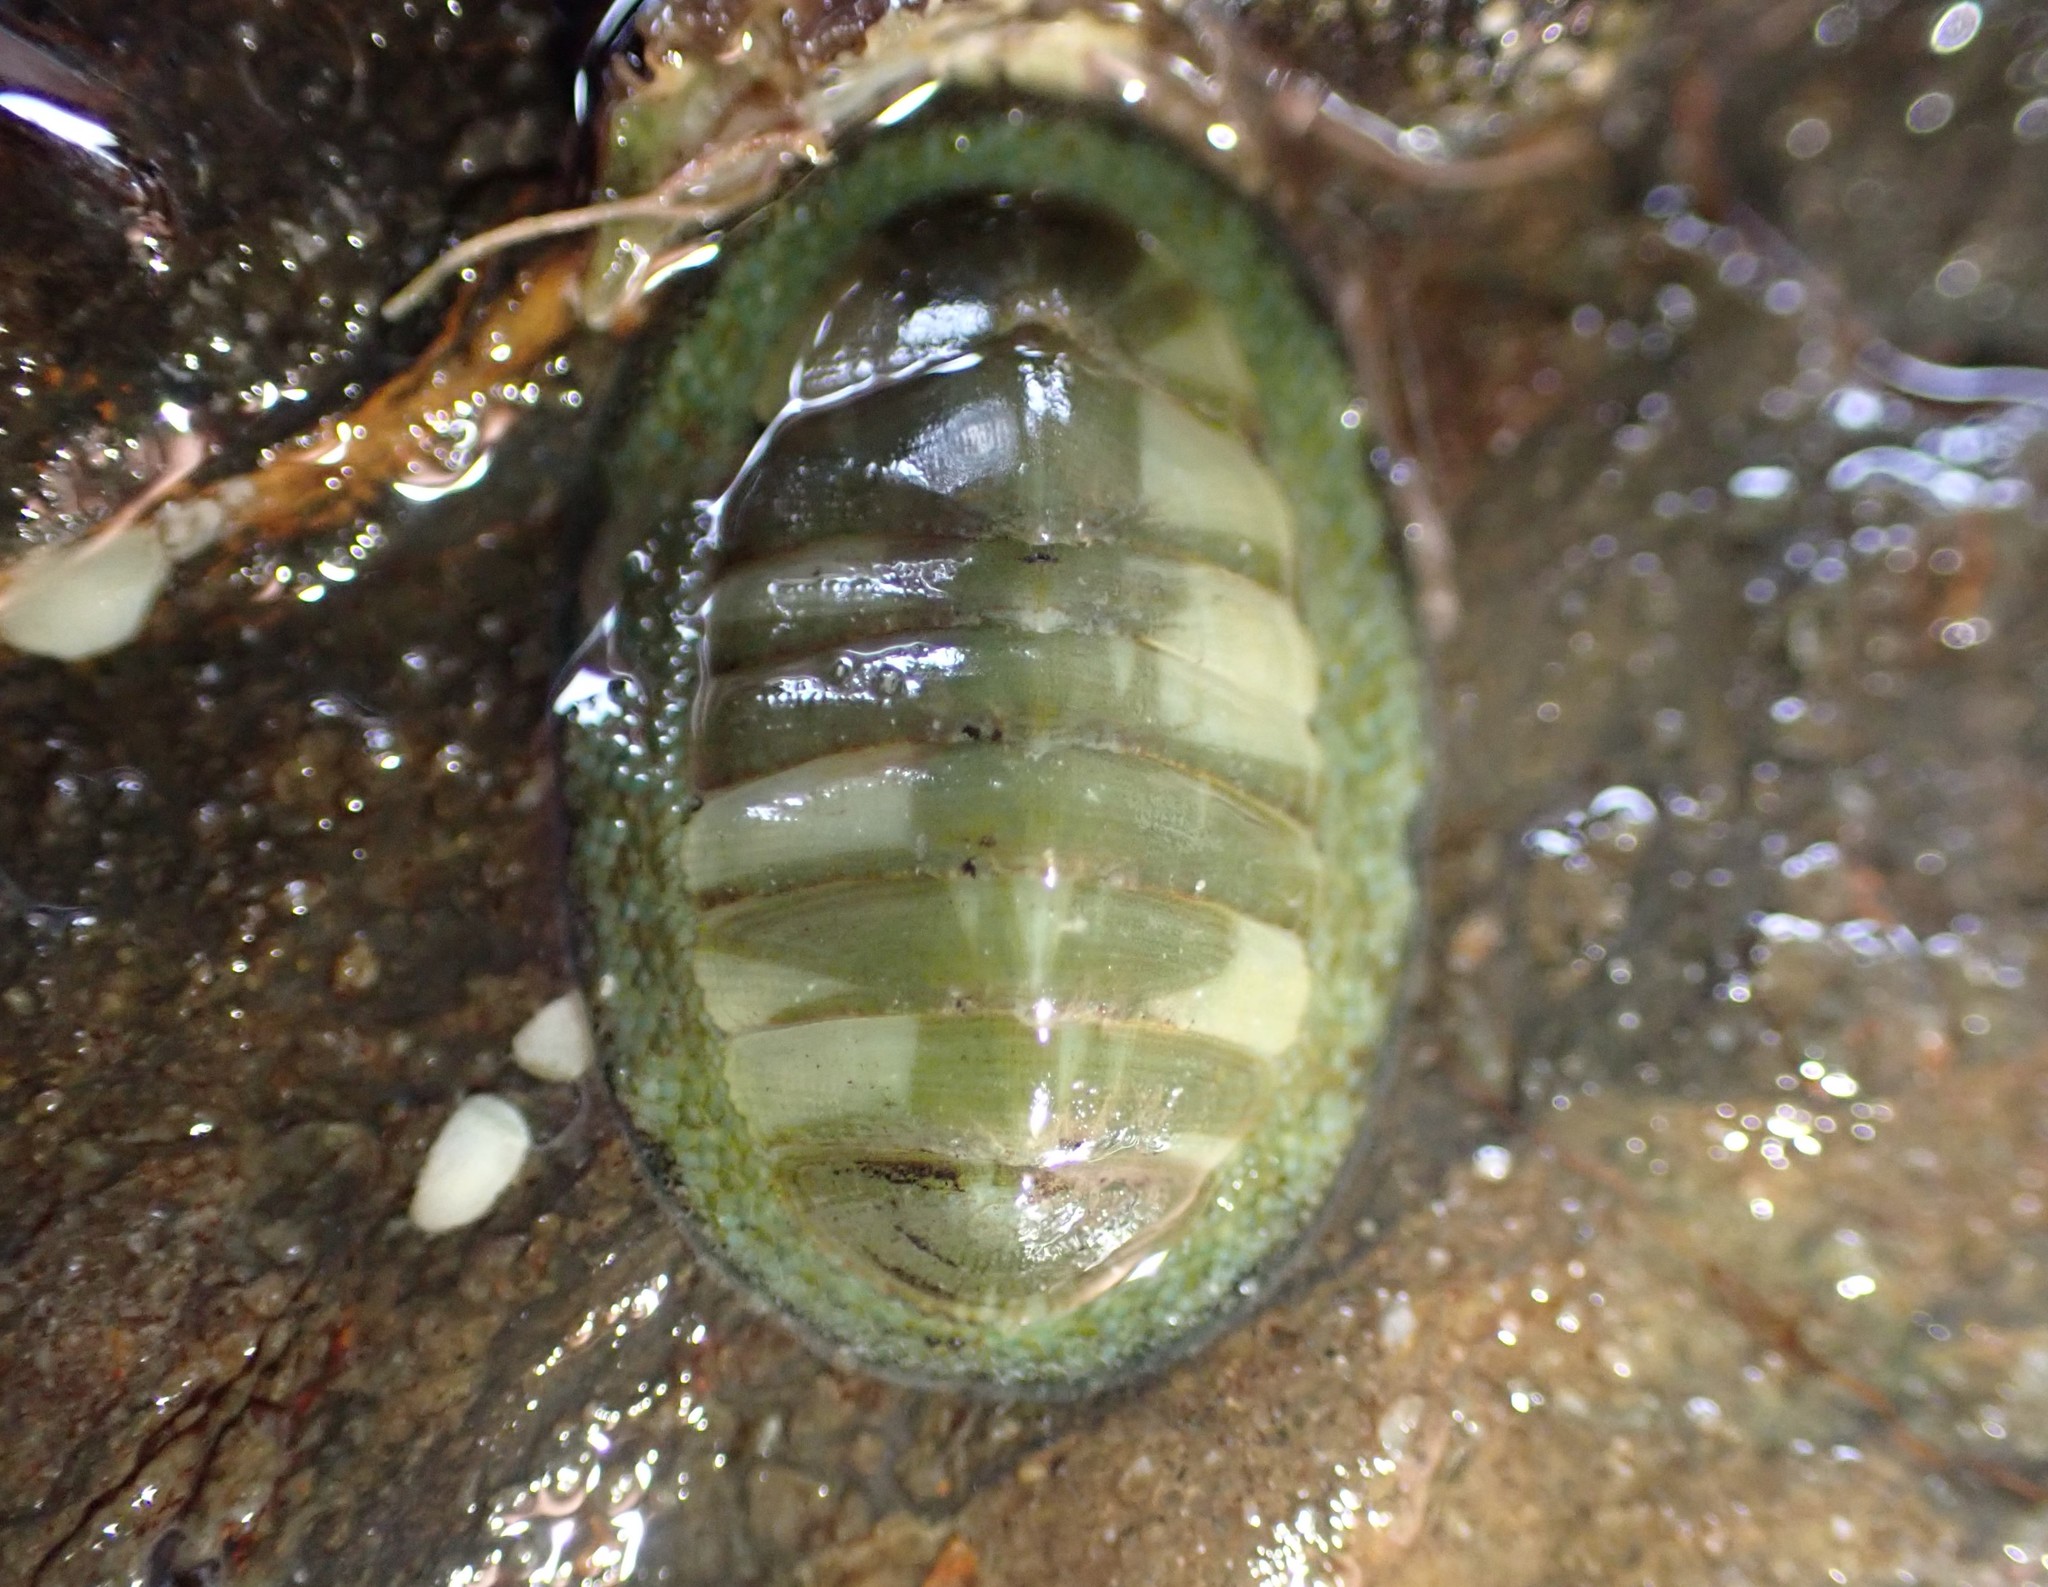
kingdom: Animalia
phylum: Mollusca
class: Polyplacophora
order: Chitonida
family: Chitonidae
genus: Chiton
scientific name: Chiton glaucus
